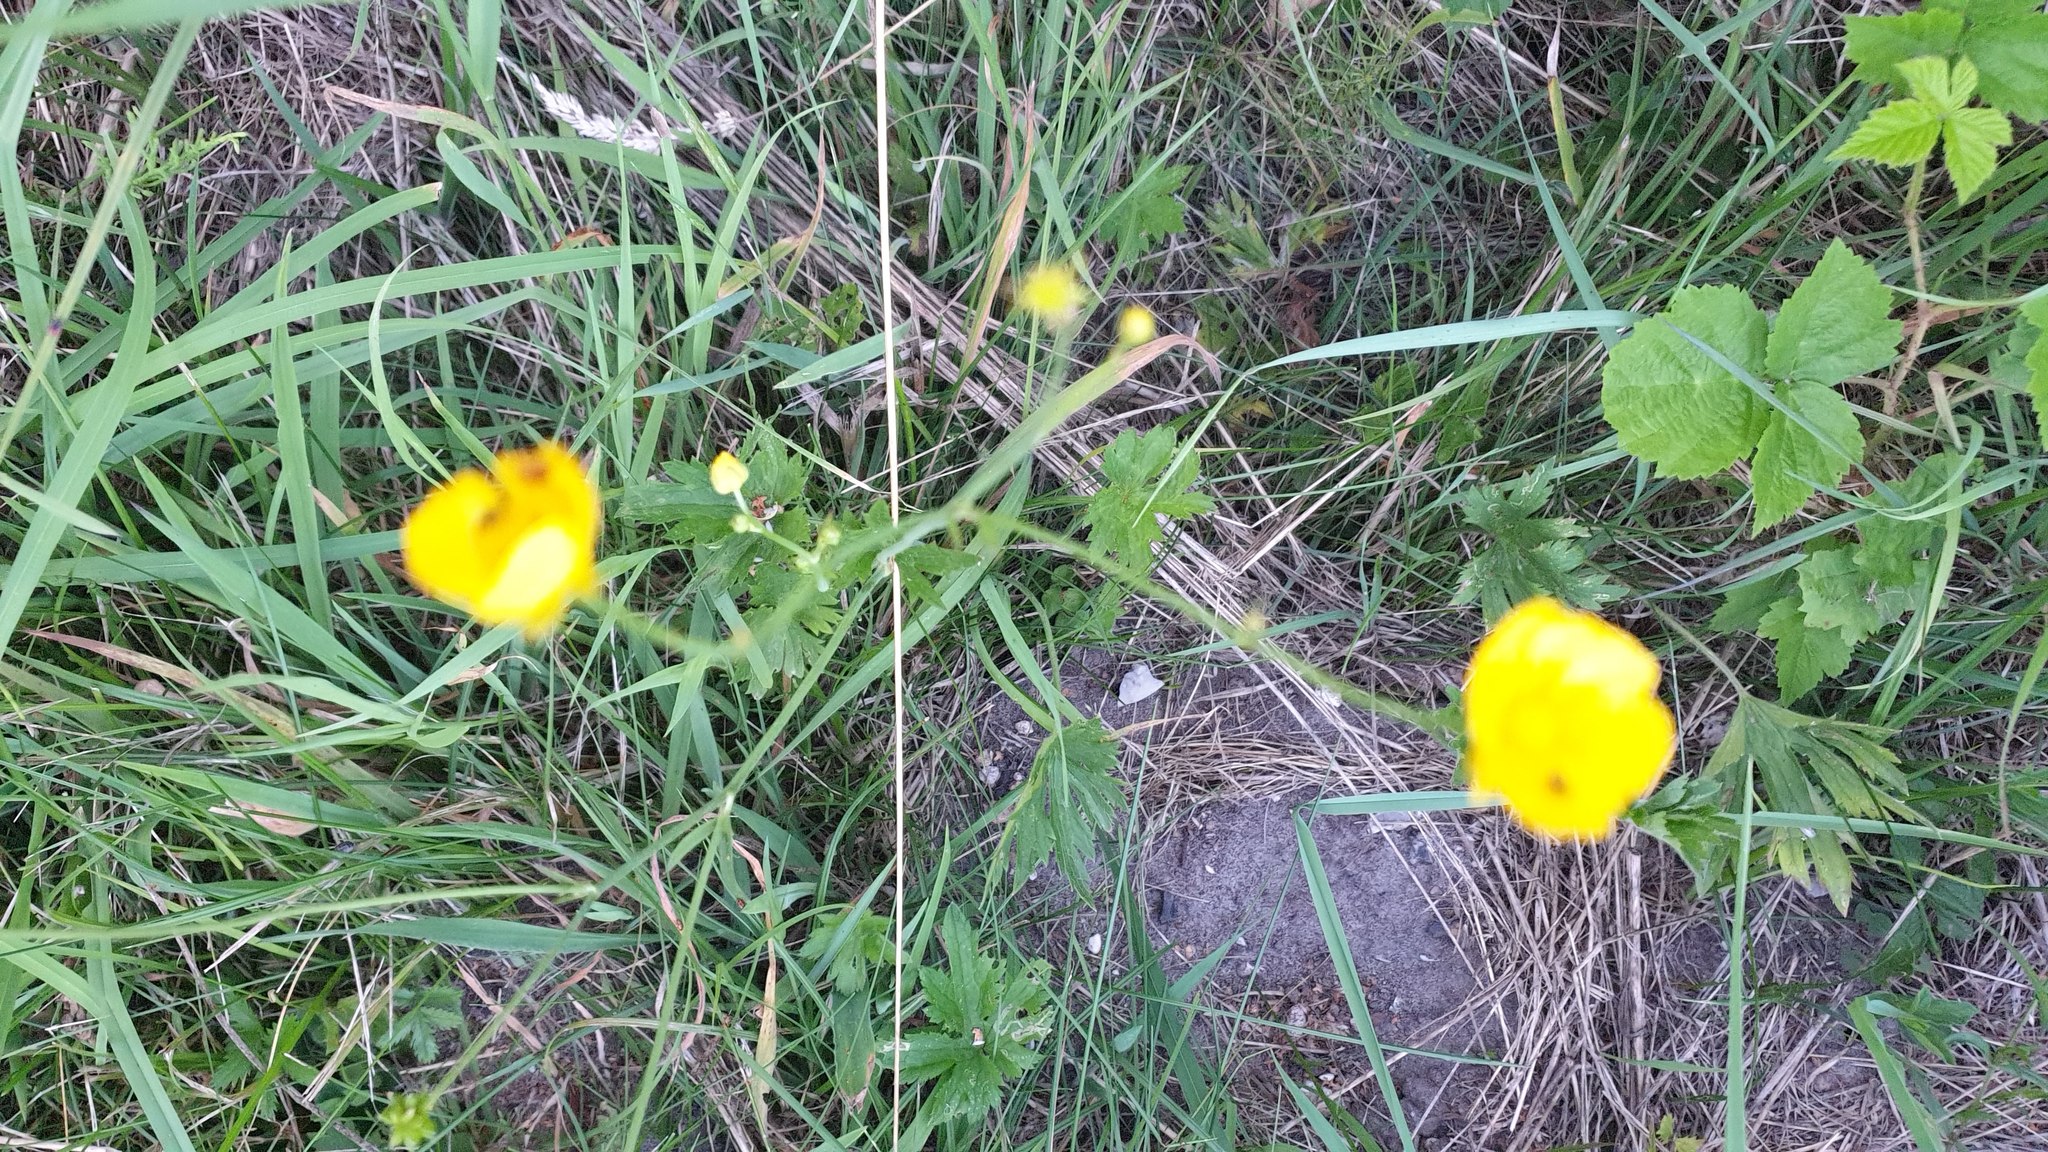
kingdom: Plantae
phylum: Tracheophyta
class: Magnoliopsida
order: Ranunculales
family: Ranunculaceae
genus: Ranunculus
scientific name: Ranunculus acris
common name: Meadow buttercup
